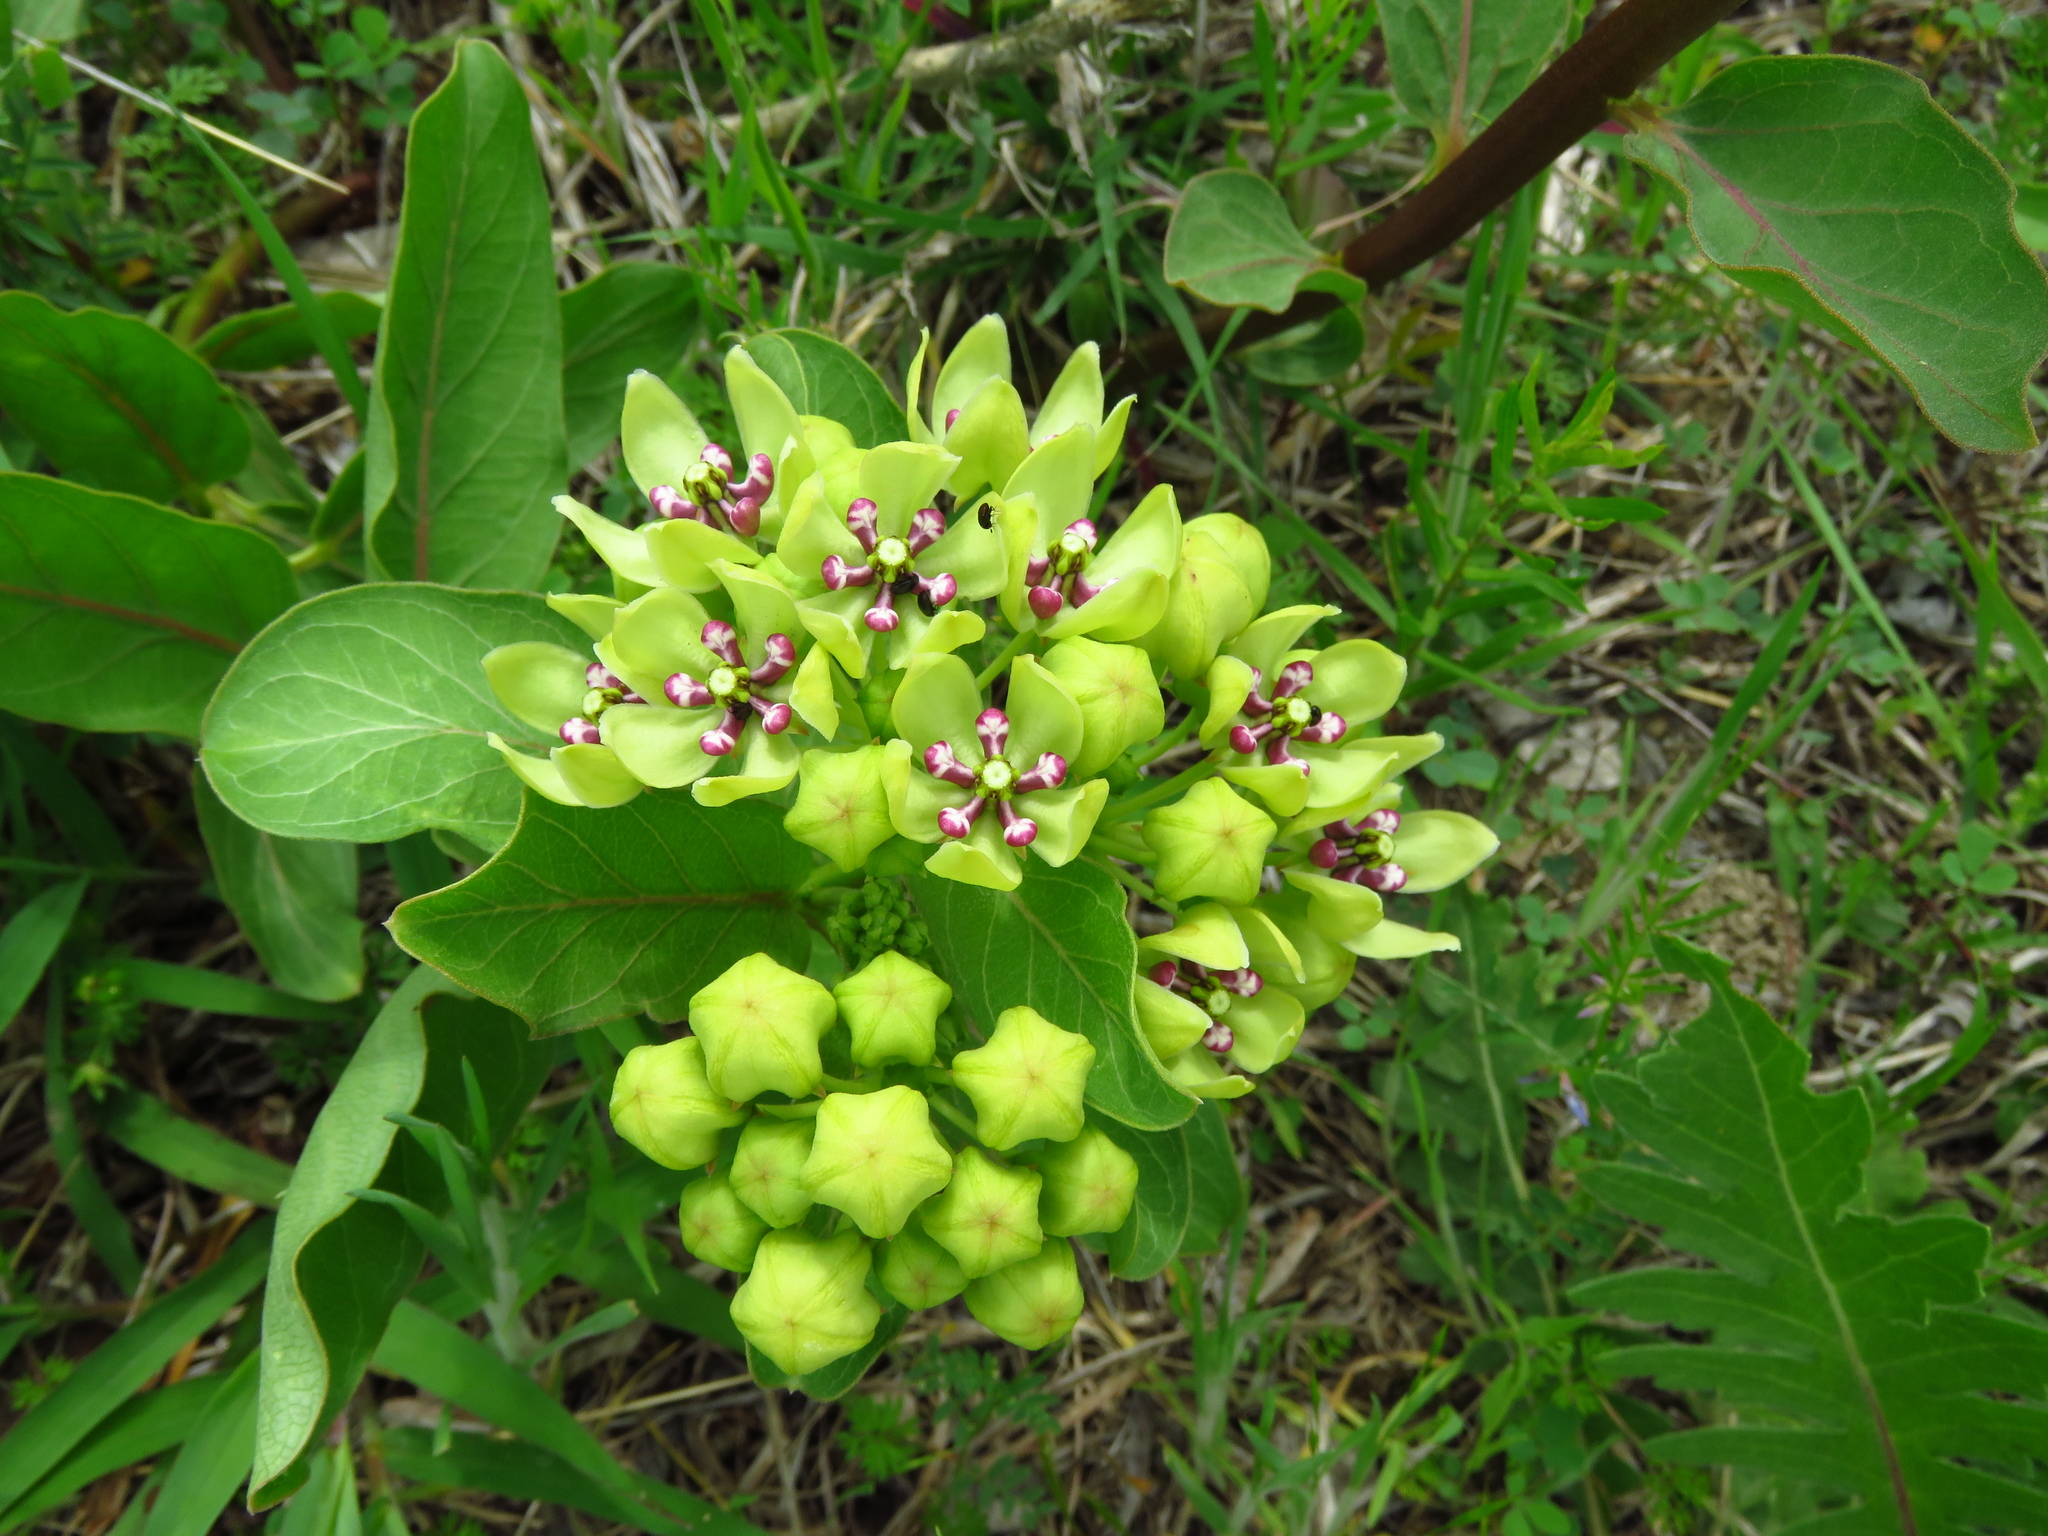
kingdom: Plantae
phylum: Tracheophyta
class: Magnoliopsida
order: Gentianales
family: Apocynaceae
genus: Asclepias
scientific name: Asclepias viridis
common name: Antelope-horns
